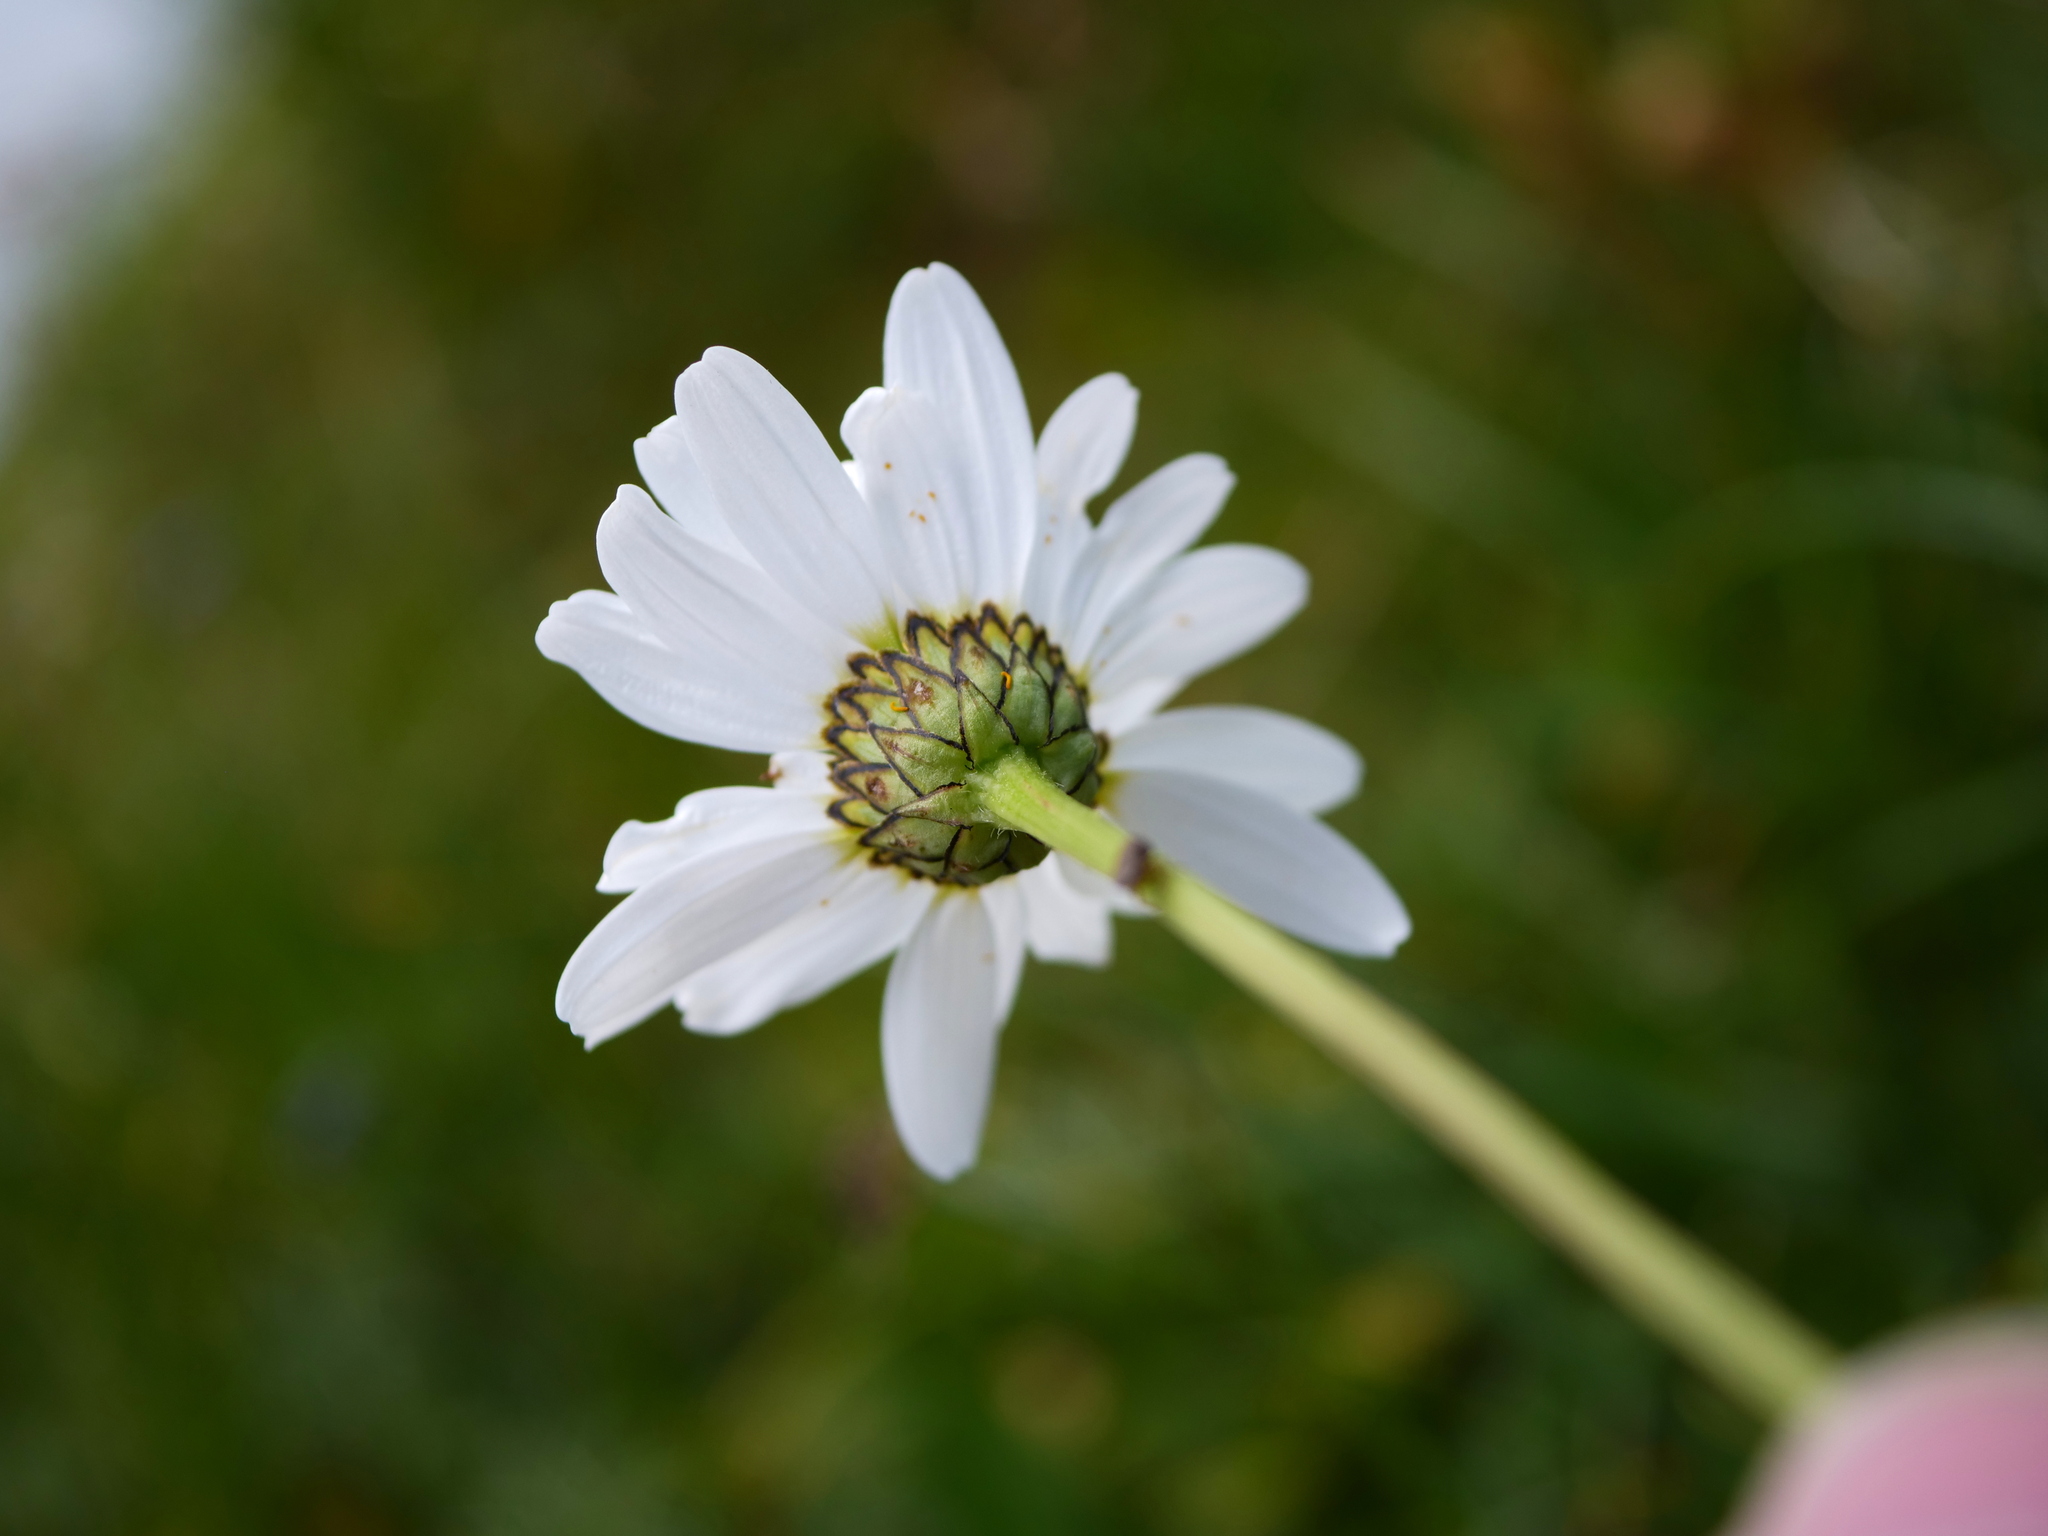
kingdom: Plantae
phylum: Tracheophyta
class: Magnoliopsida
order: Asterales
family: Asteraceae
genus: Leucanthemum
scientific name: Leucanthemum adustum
